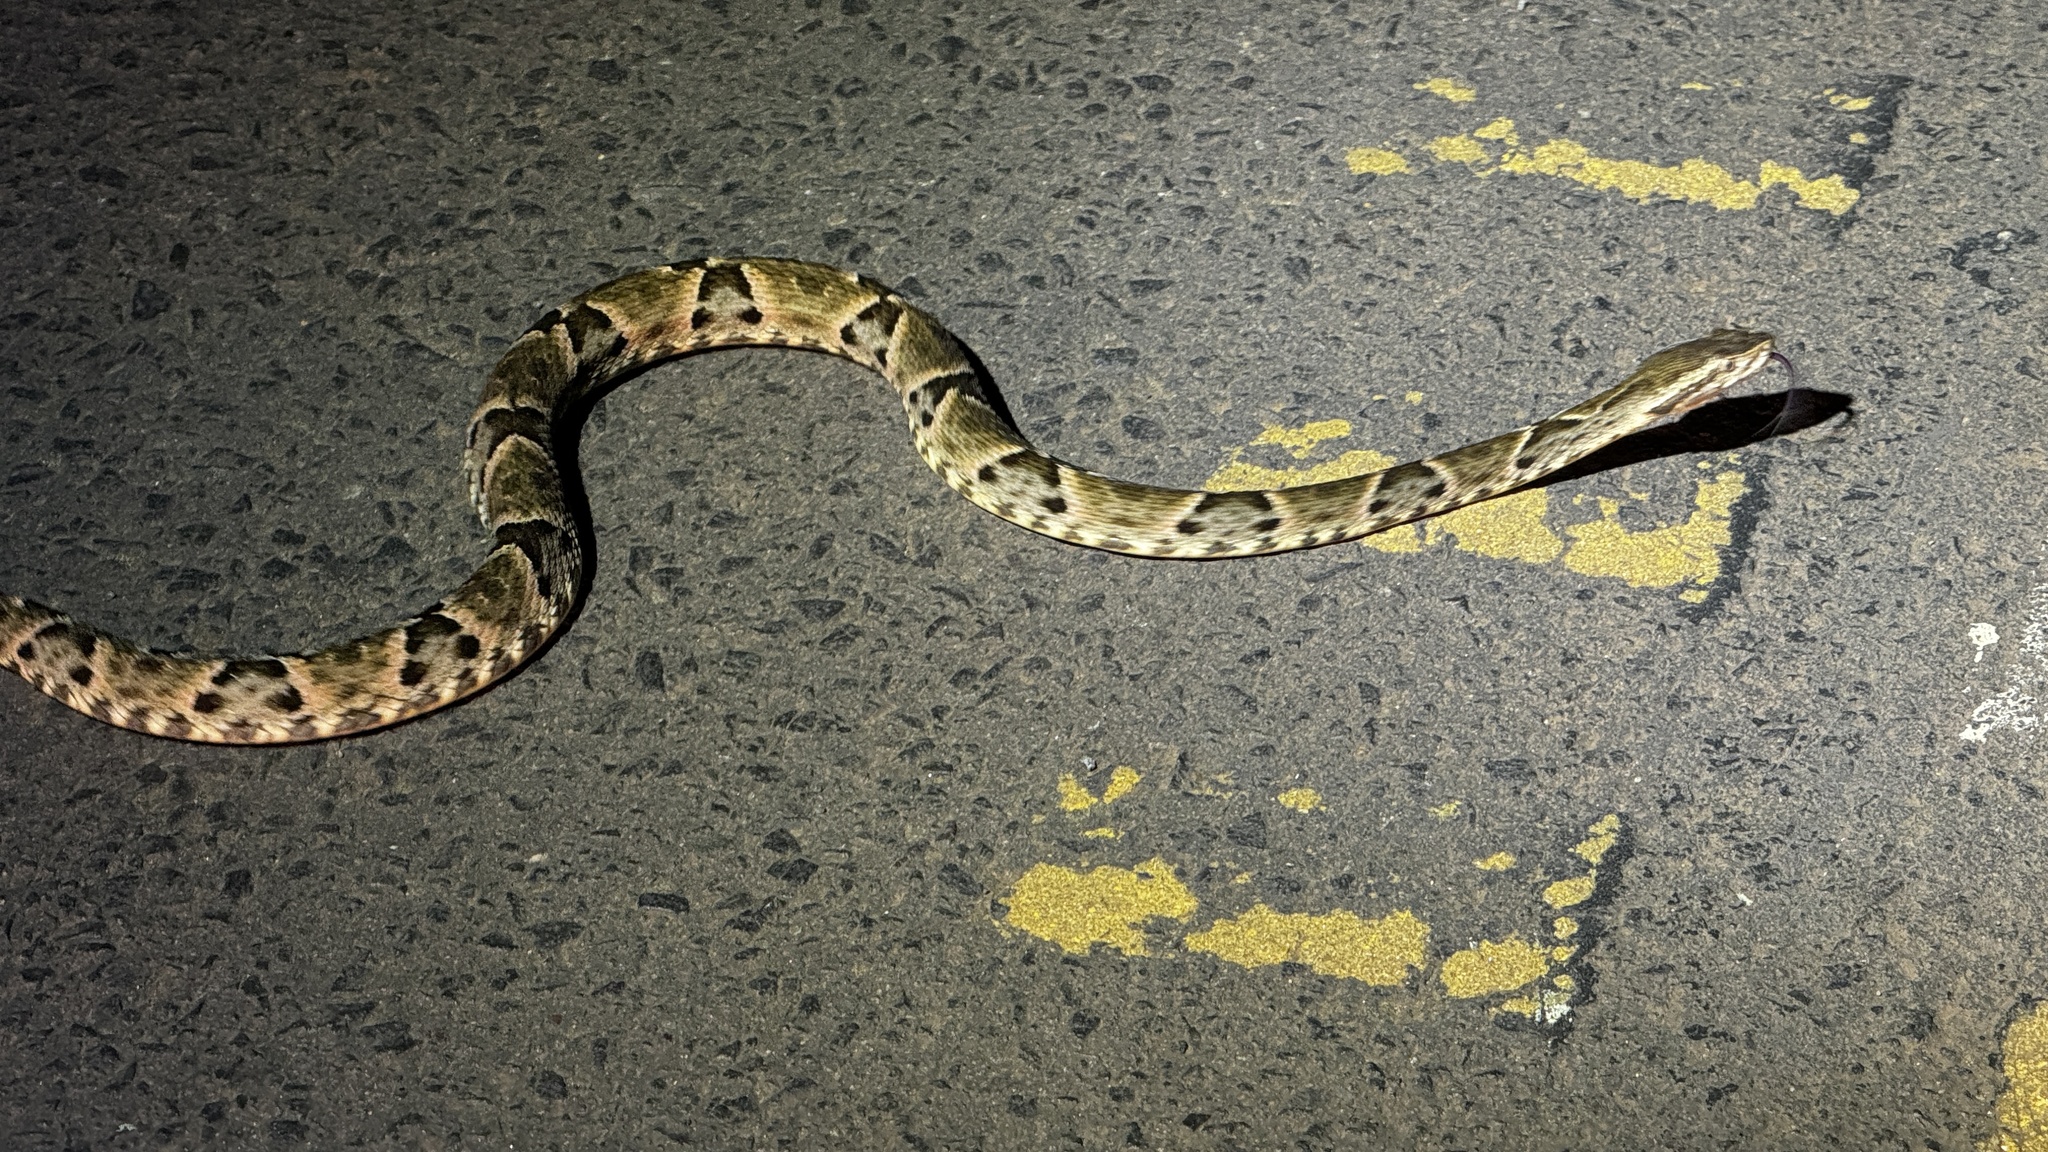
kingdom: Animalia
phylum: Chordata
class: Squamata
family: Viperidae
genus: Bothrops
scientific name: Bothrops moojeni
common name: Brazilian lancehead
